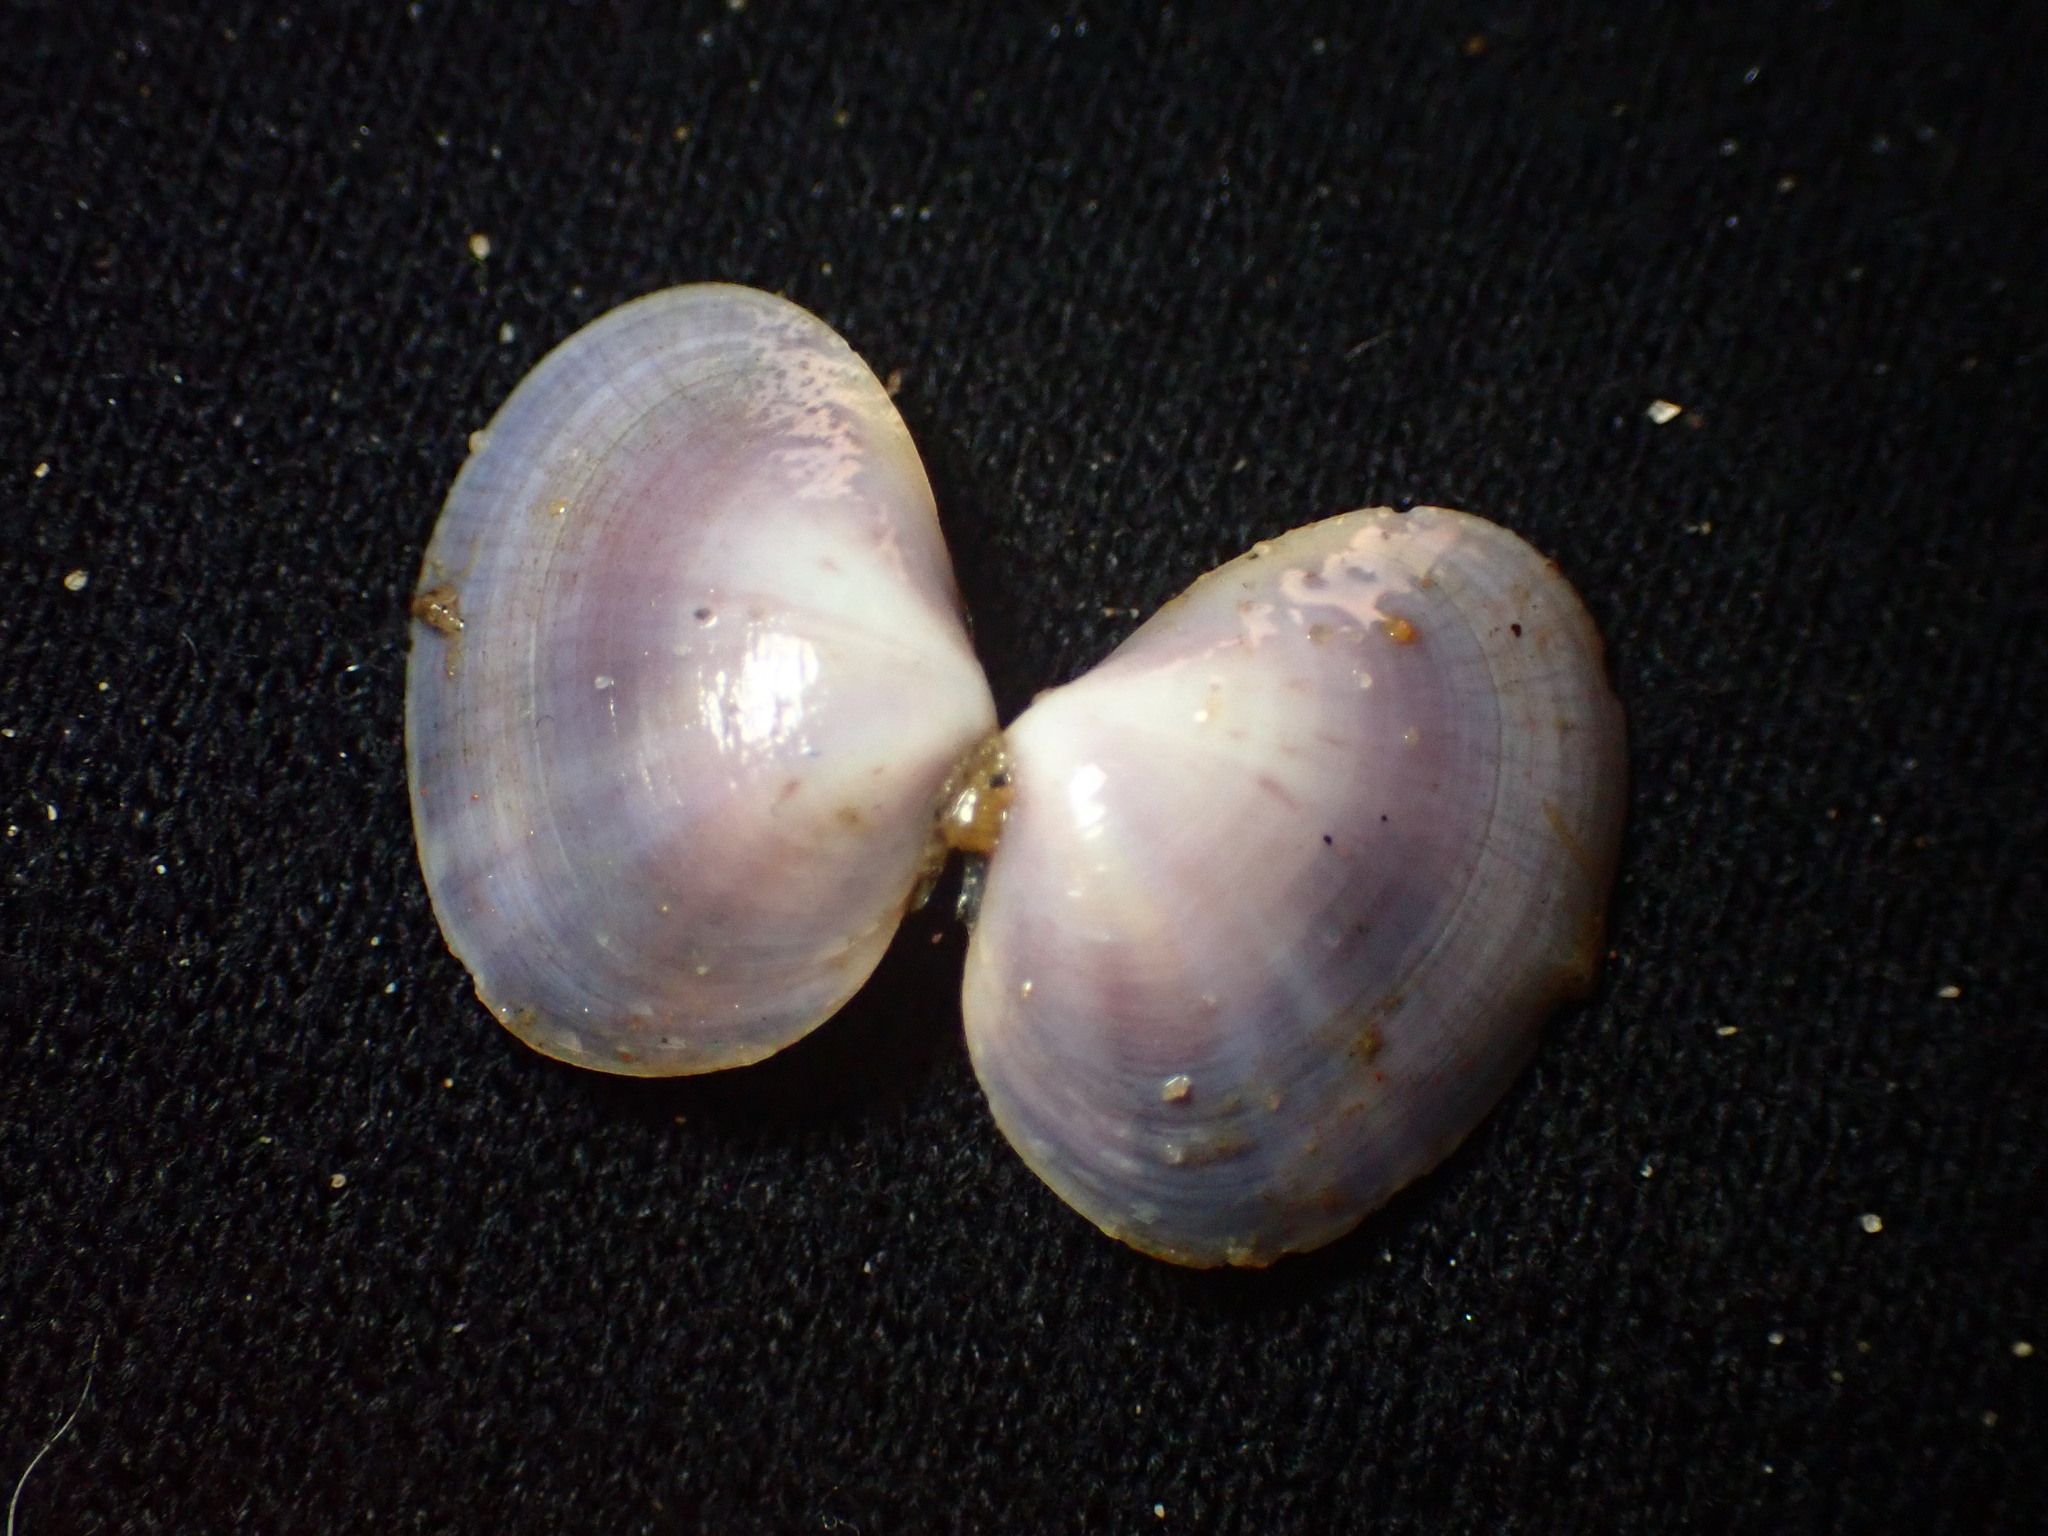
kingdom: Animalia
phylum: Mollusca
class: Bivalvia
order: Cardiida
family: Psammobiidae
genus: Nuttallia
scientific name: Nuttallia nuttallii
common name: California mahogany-clam
